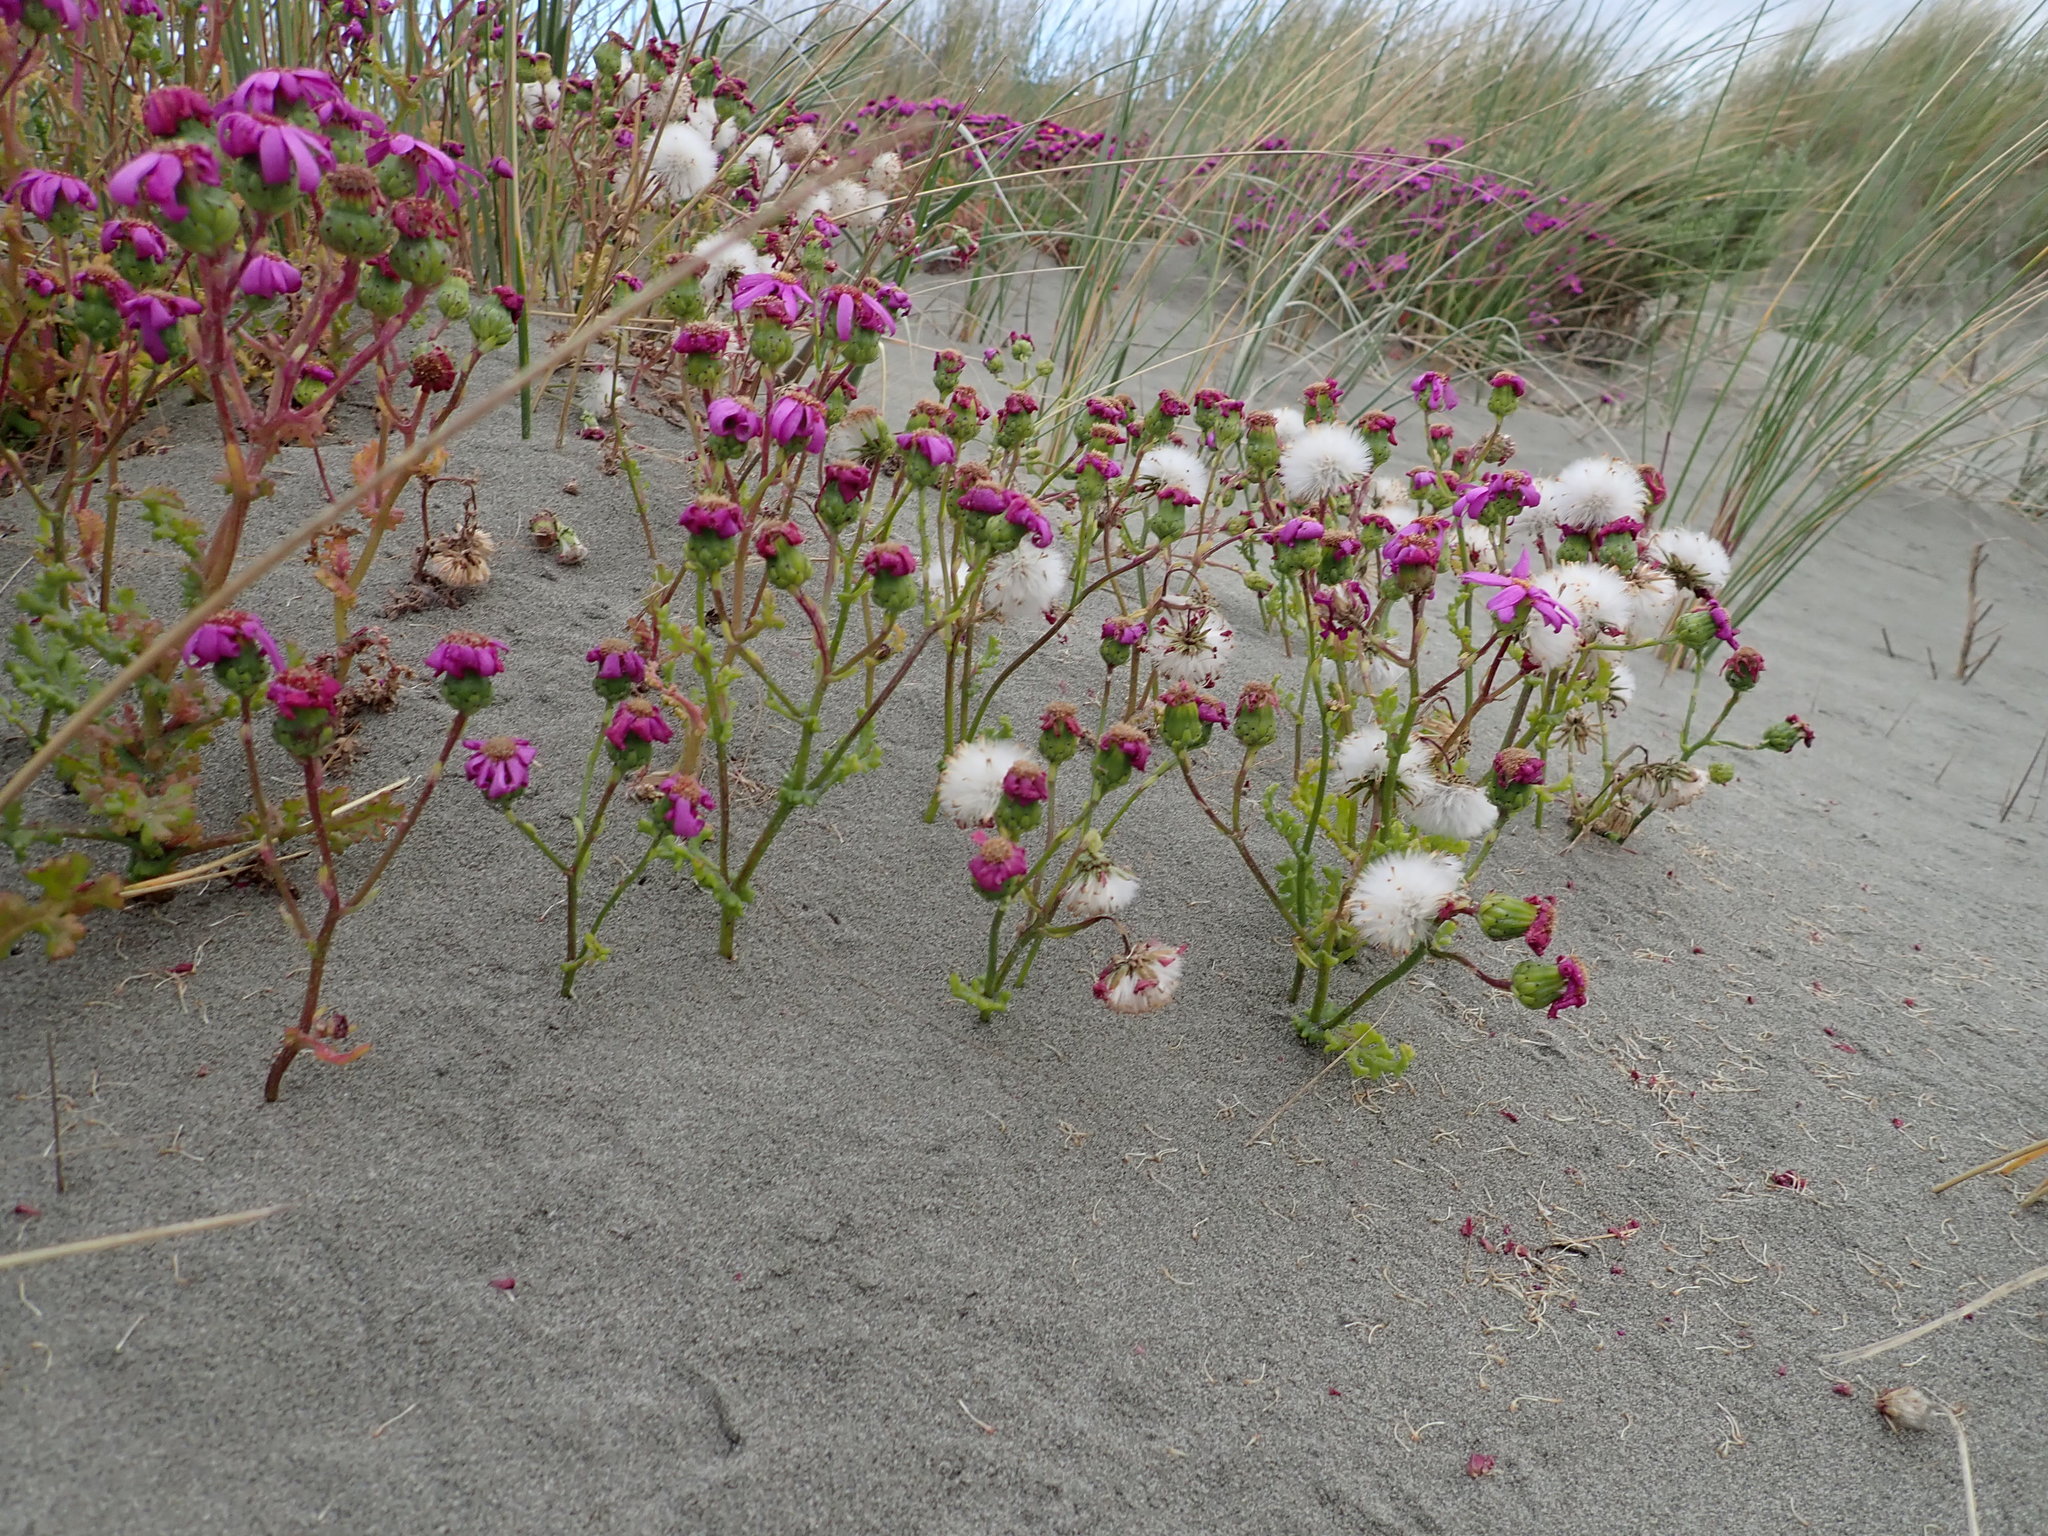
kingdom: Plantae
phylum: Tracheophyta
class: Magnoliopsida
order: Asterales
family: Asteraceae
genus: Senecio
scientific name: Senecio elegans
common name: Purple groundsel
